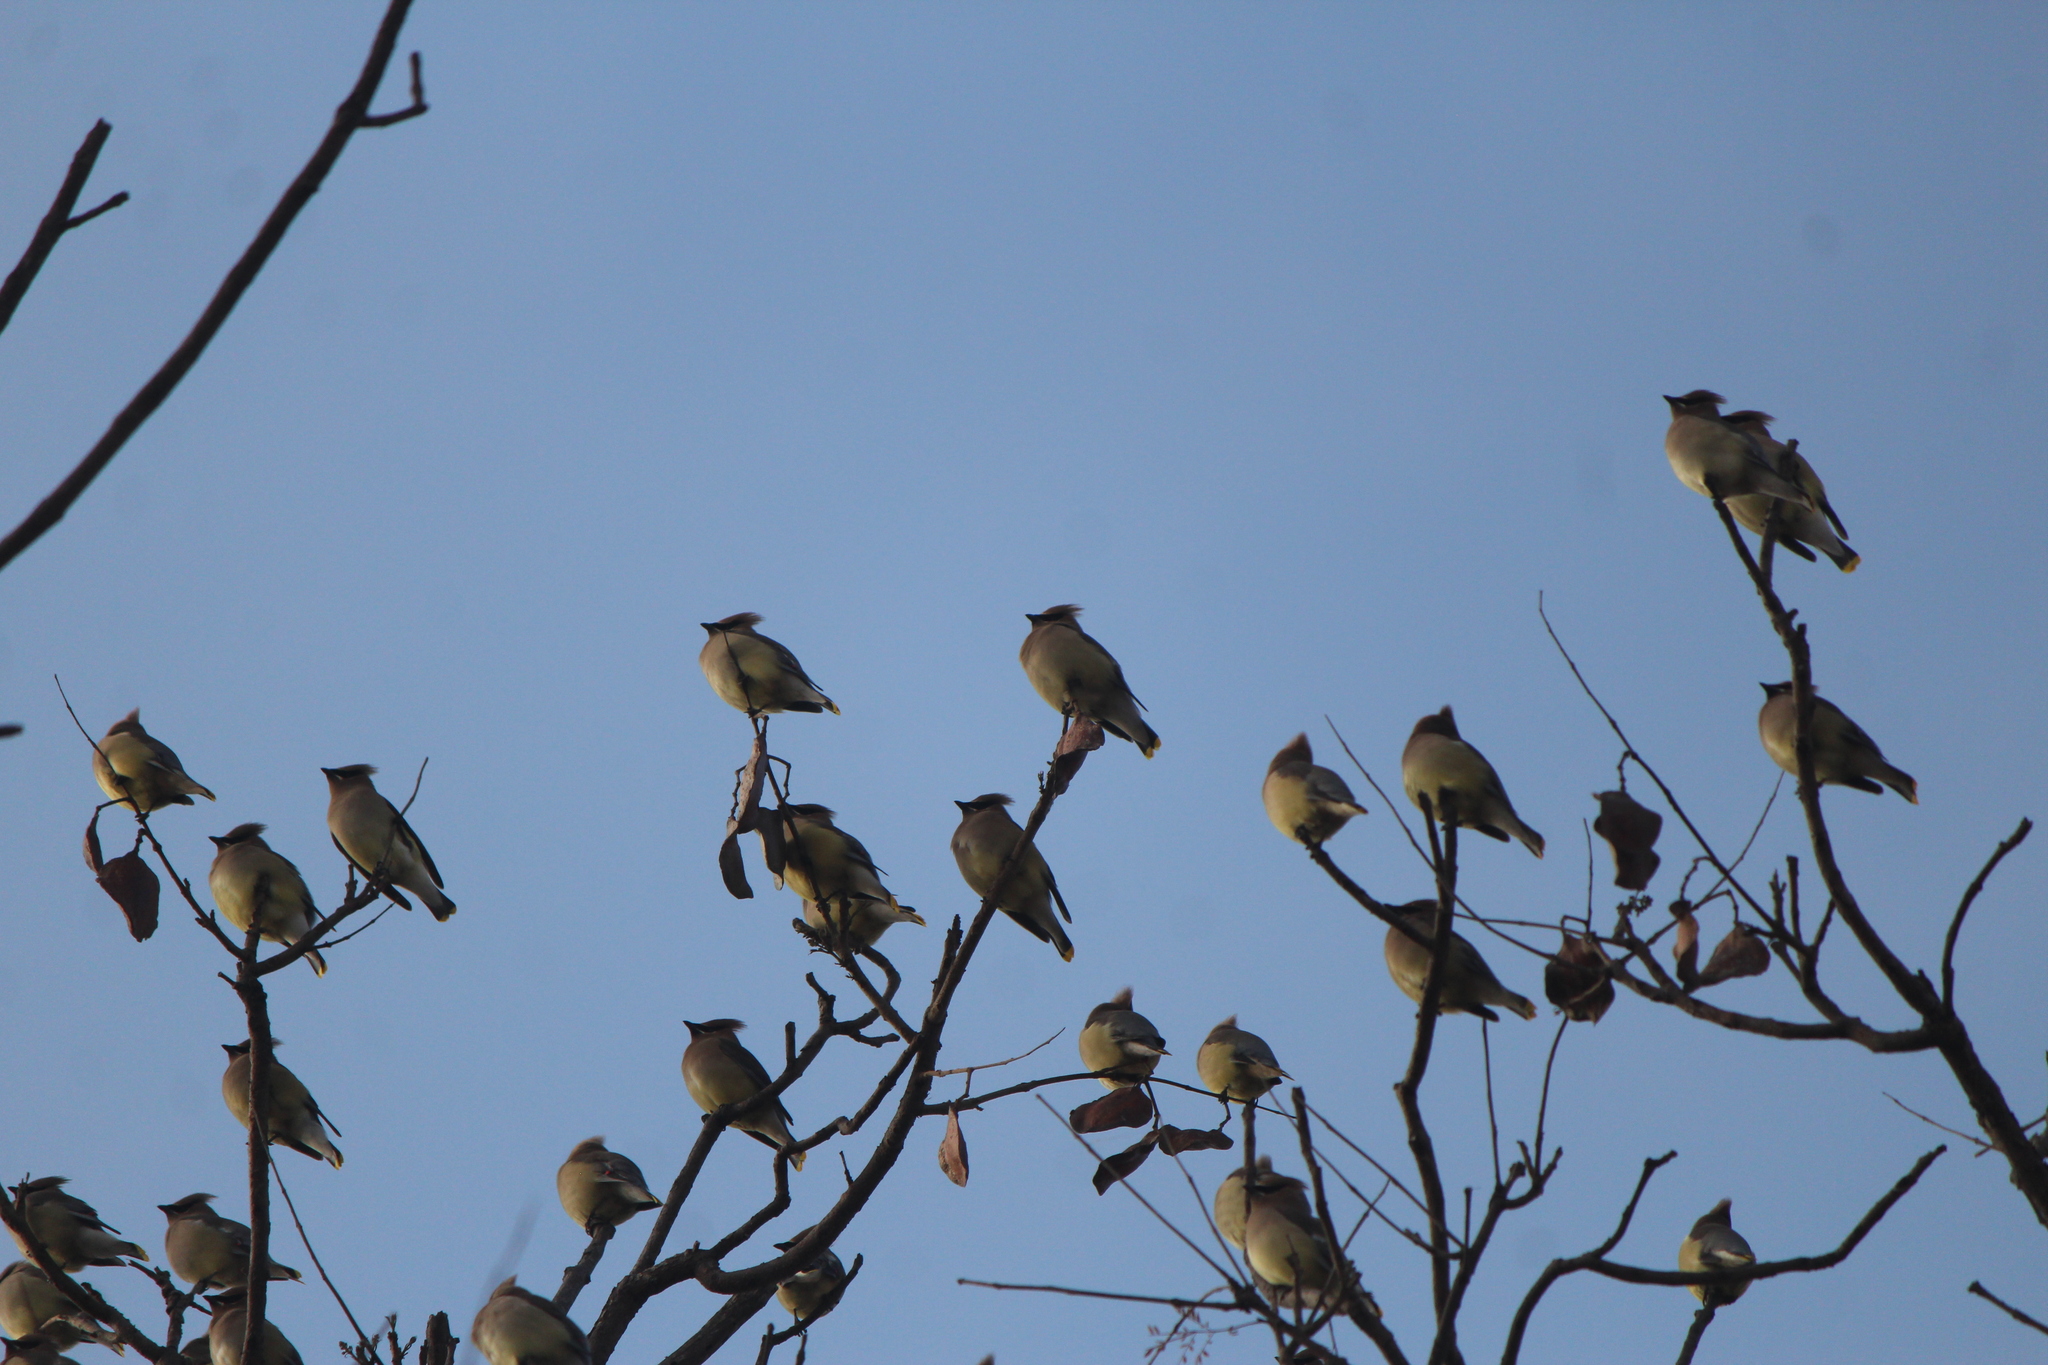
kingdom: Animalia
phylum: Chordata
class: Aves
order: Passeriformes
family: Bombycillidae
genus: Bombycilla
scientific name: Bombycilla cedrorum
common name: Cedar waxwing
